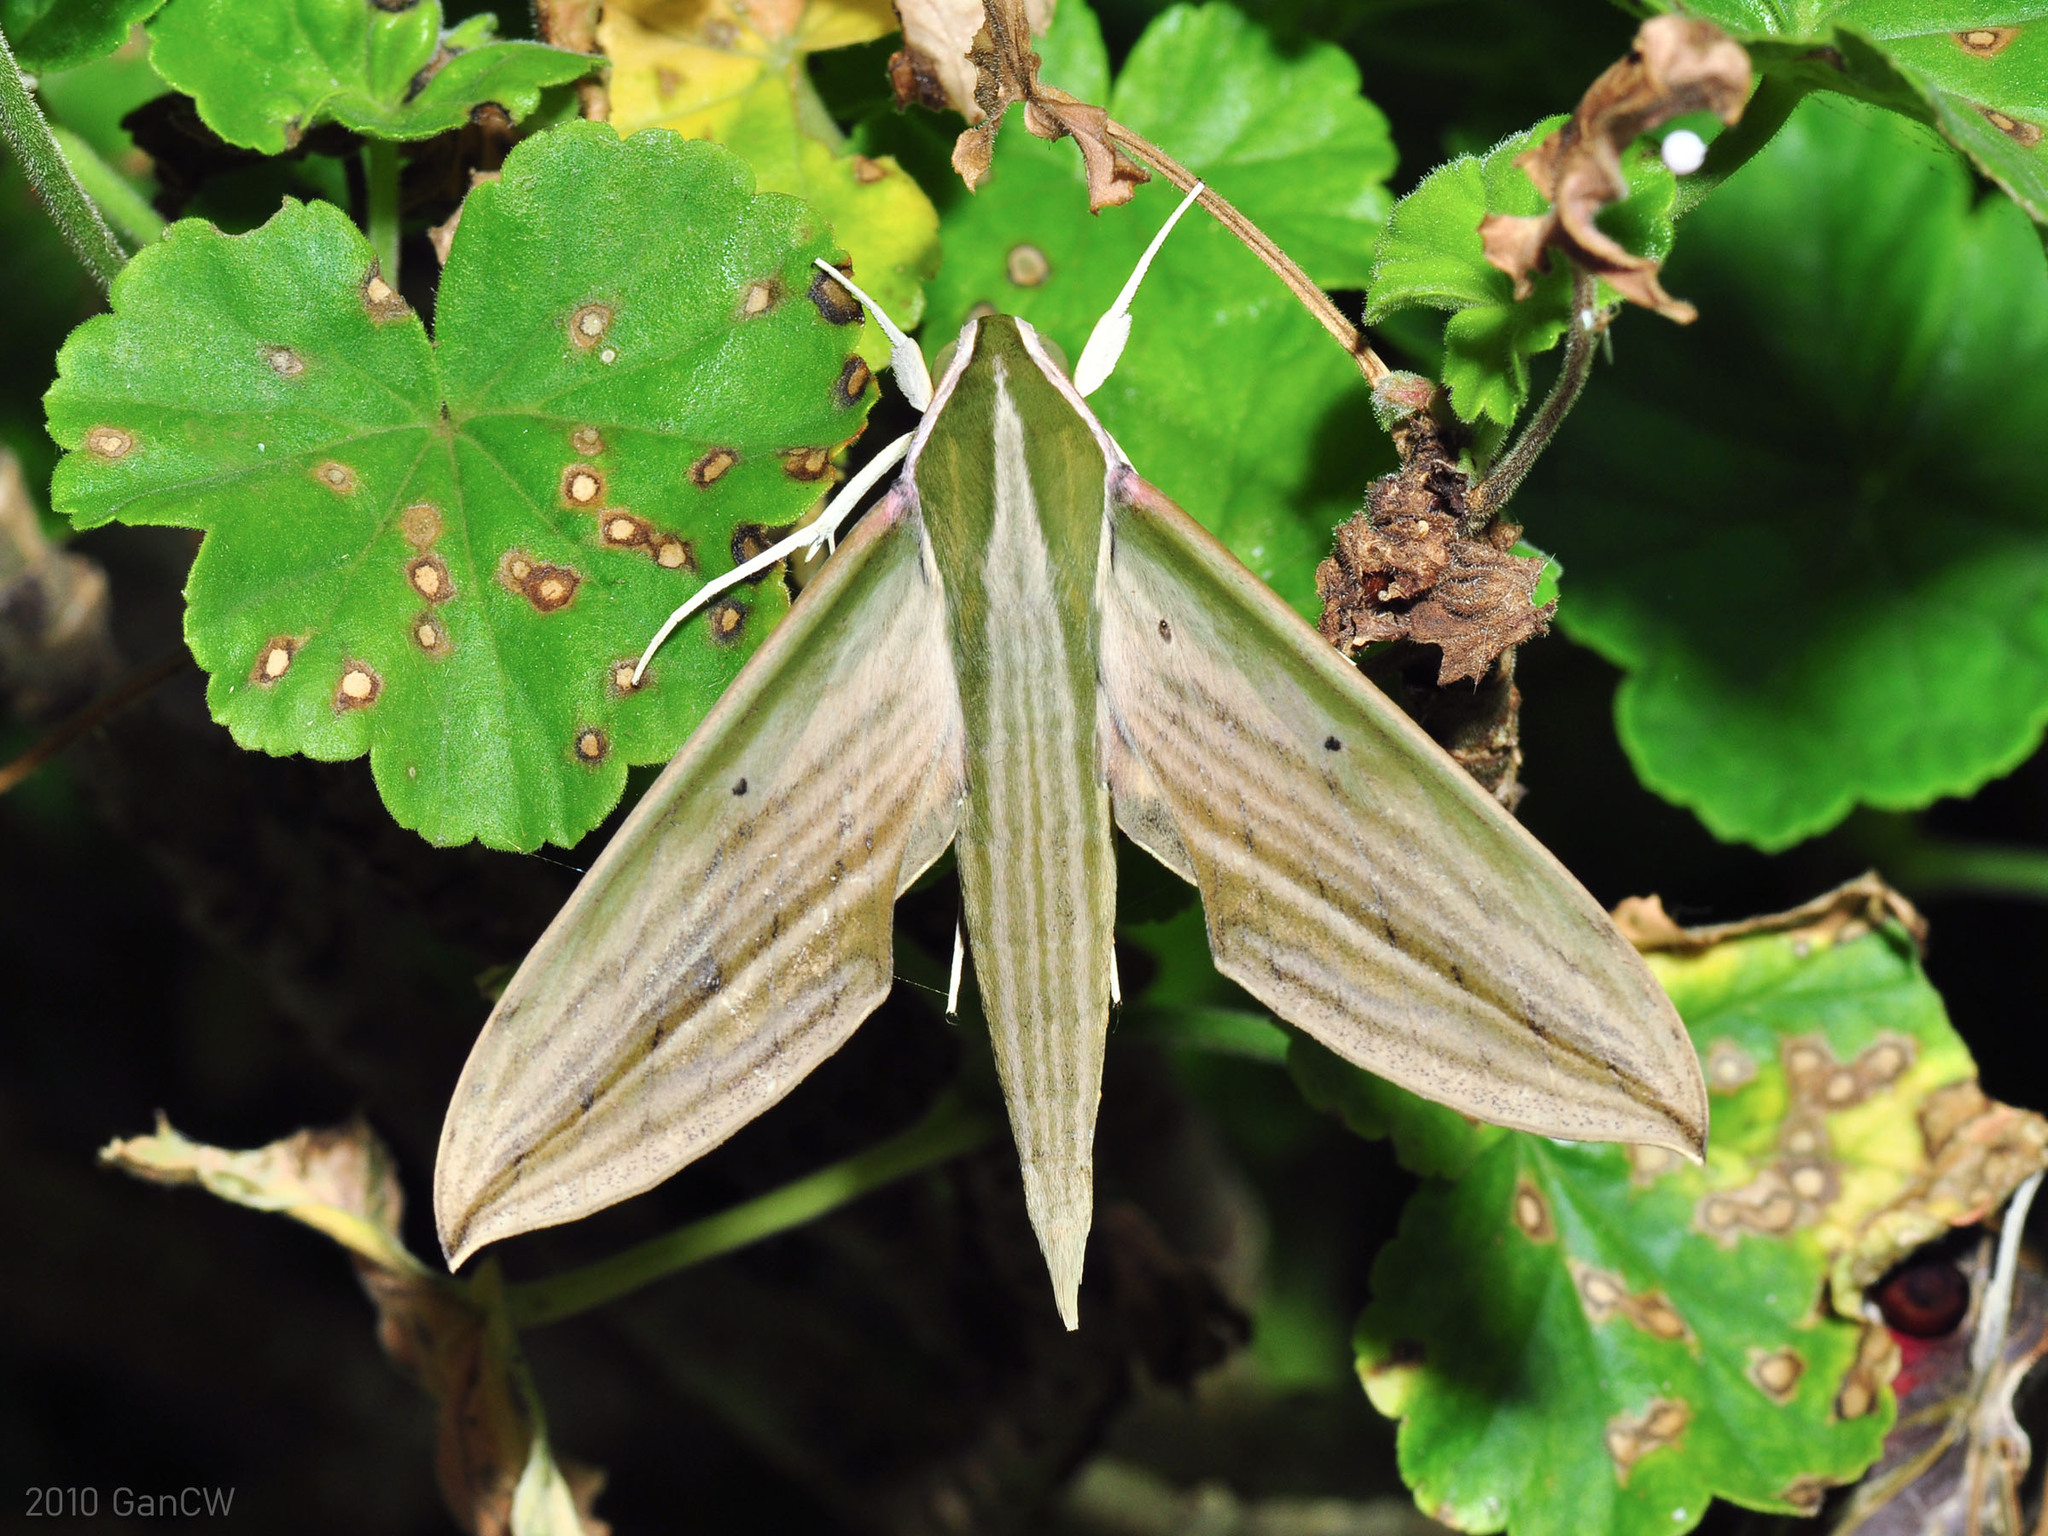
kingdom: Animalia
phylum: Arthropoda
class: Insecta
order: Lepidoptera
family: Sphingidae
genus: Cechetra
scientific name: Cechetra lineosa
